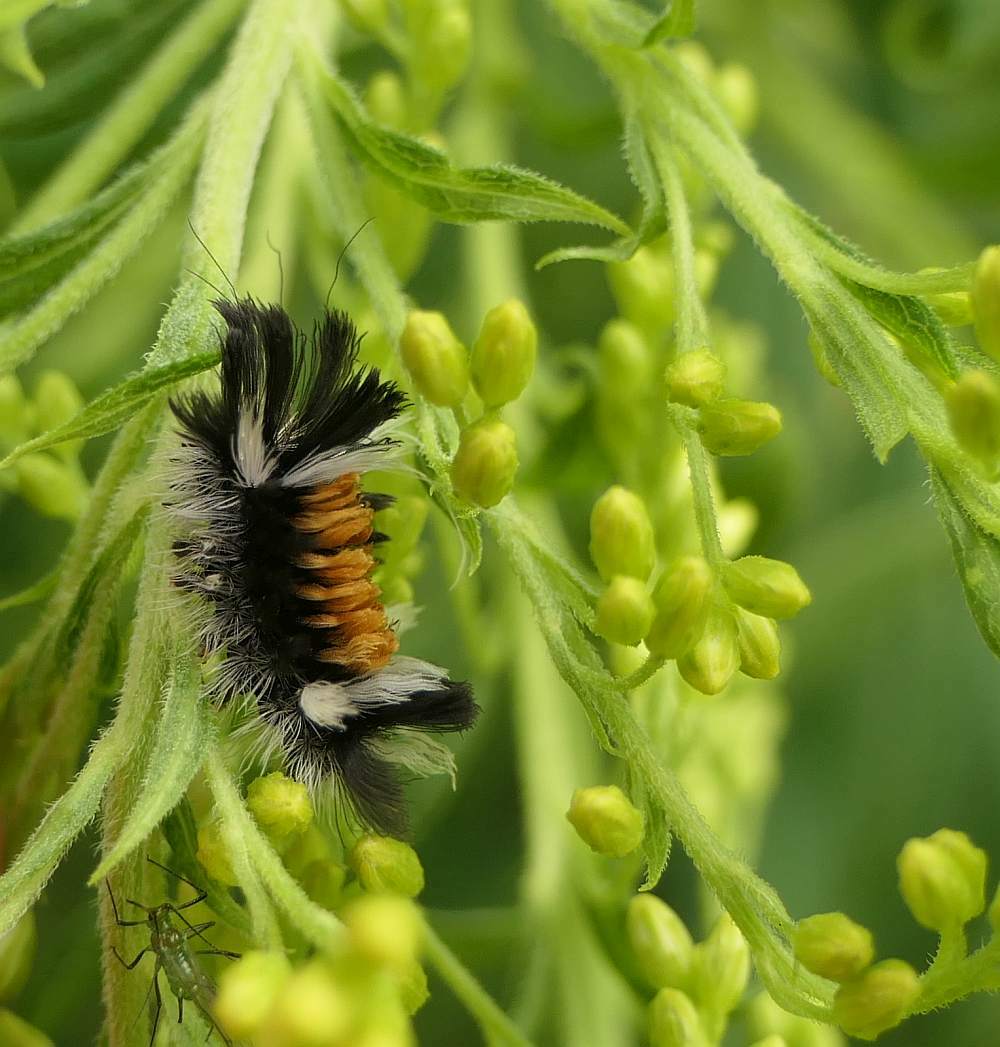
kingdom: Animalia
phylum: Arthropoda
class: Insecta
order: Lepidoptera
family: Erebidae
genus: Euchaetes
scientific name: Euchaetes egle
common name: Milkweed tussock moth
